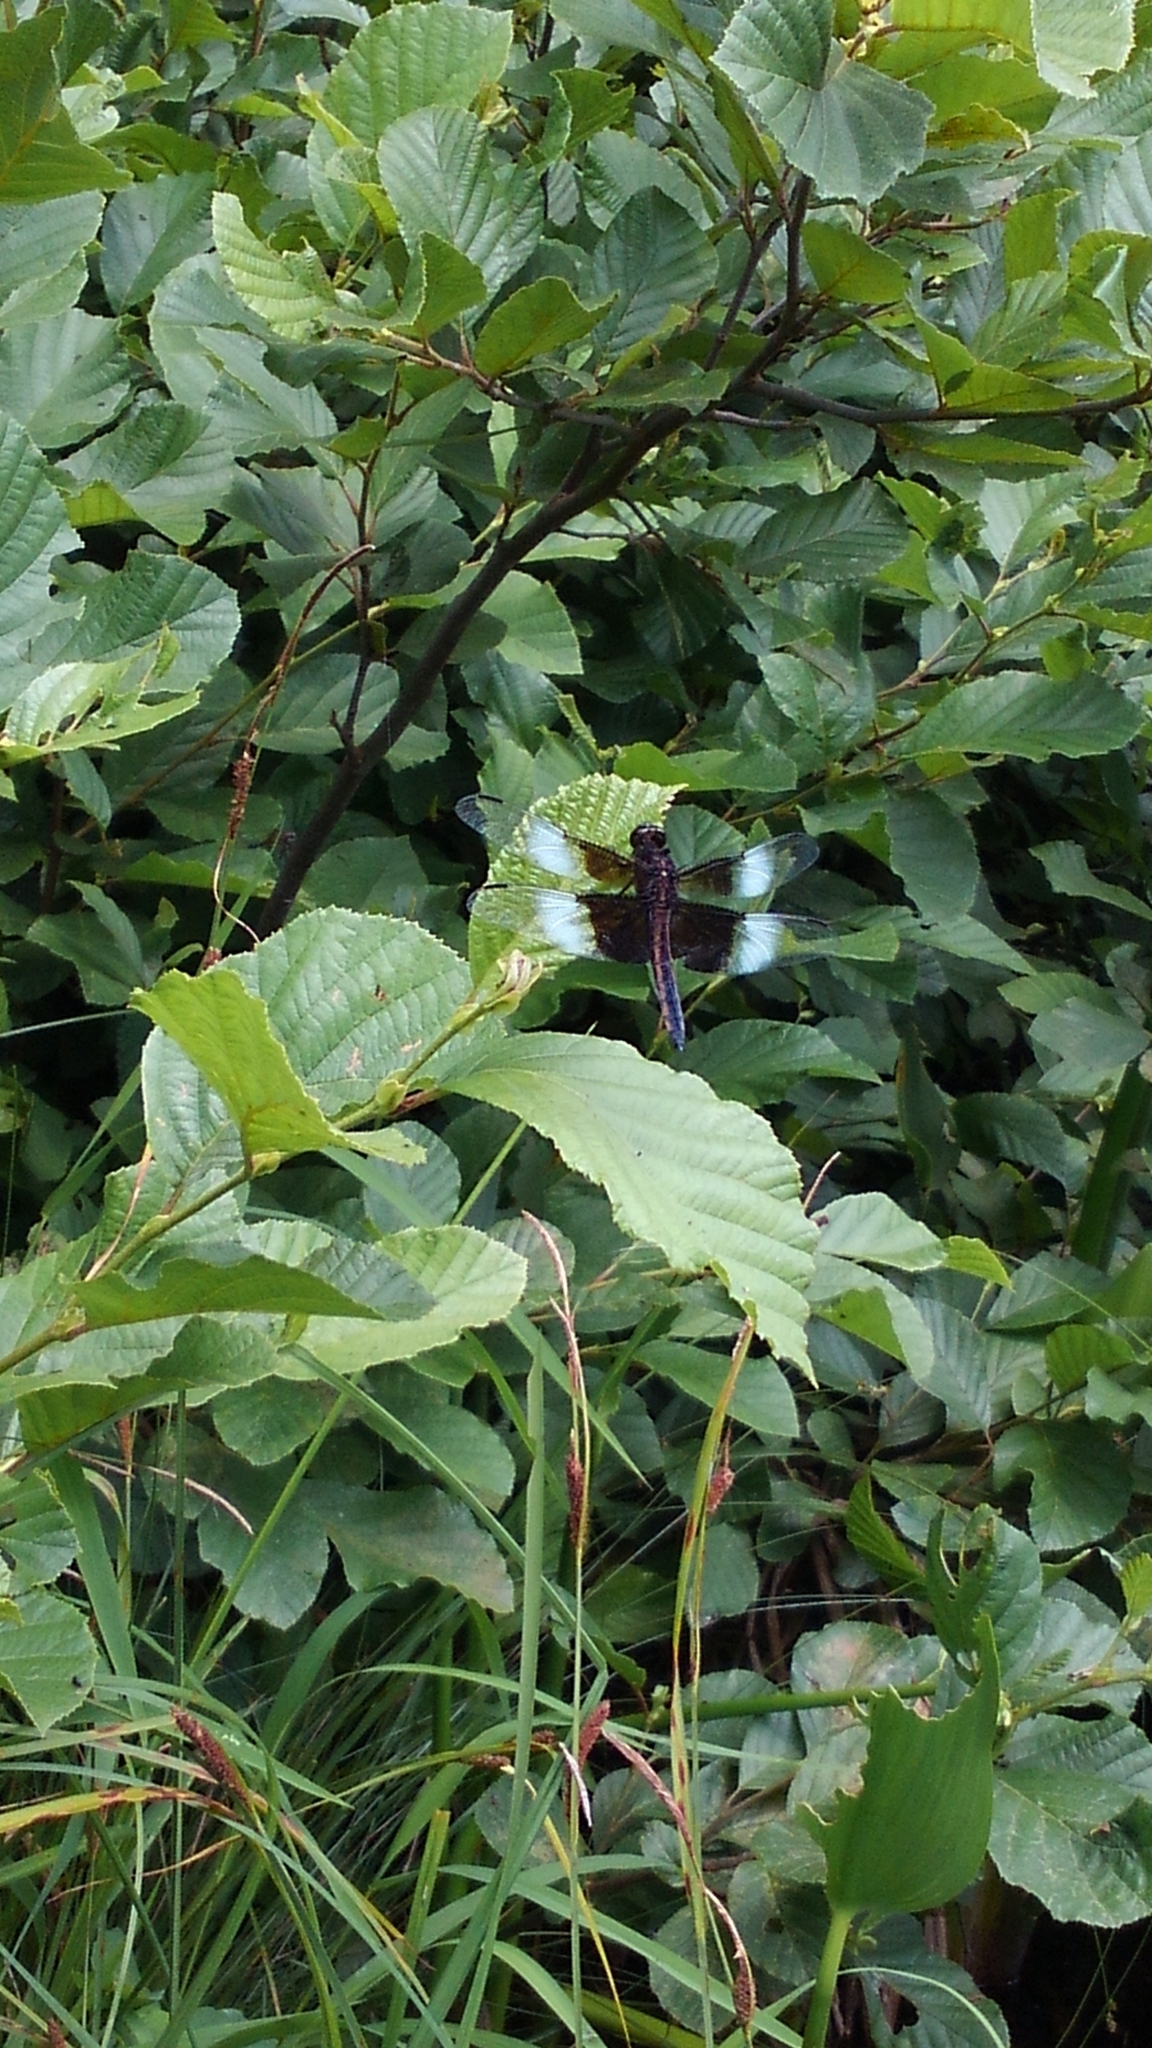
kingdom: Animalia
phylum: Arthropoda
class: Insecta
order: Odonata
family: Libellulidae
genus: Libellula
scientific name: Libellula luctuosa
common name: Widow skimmer
